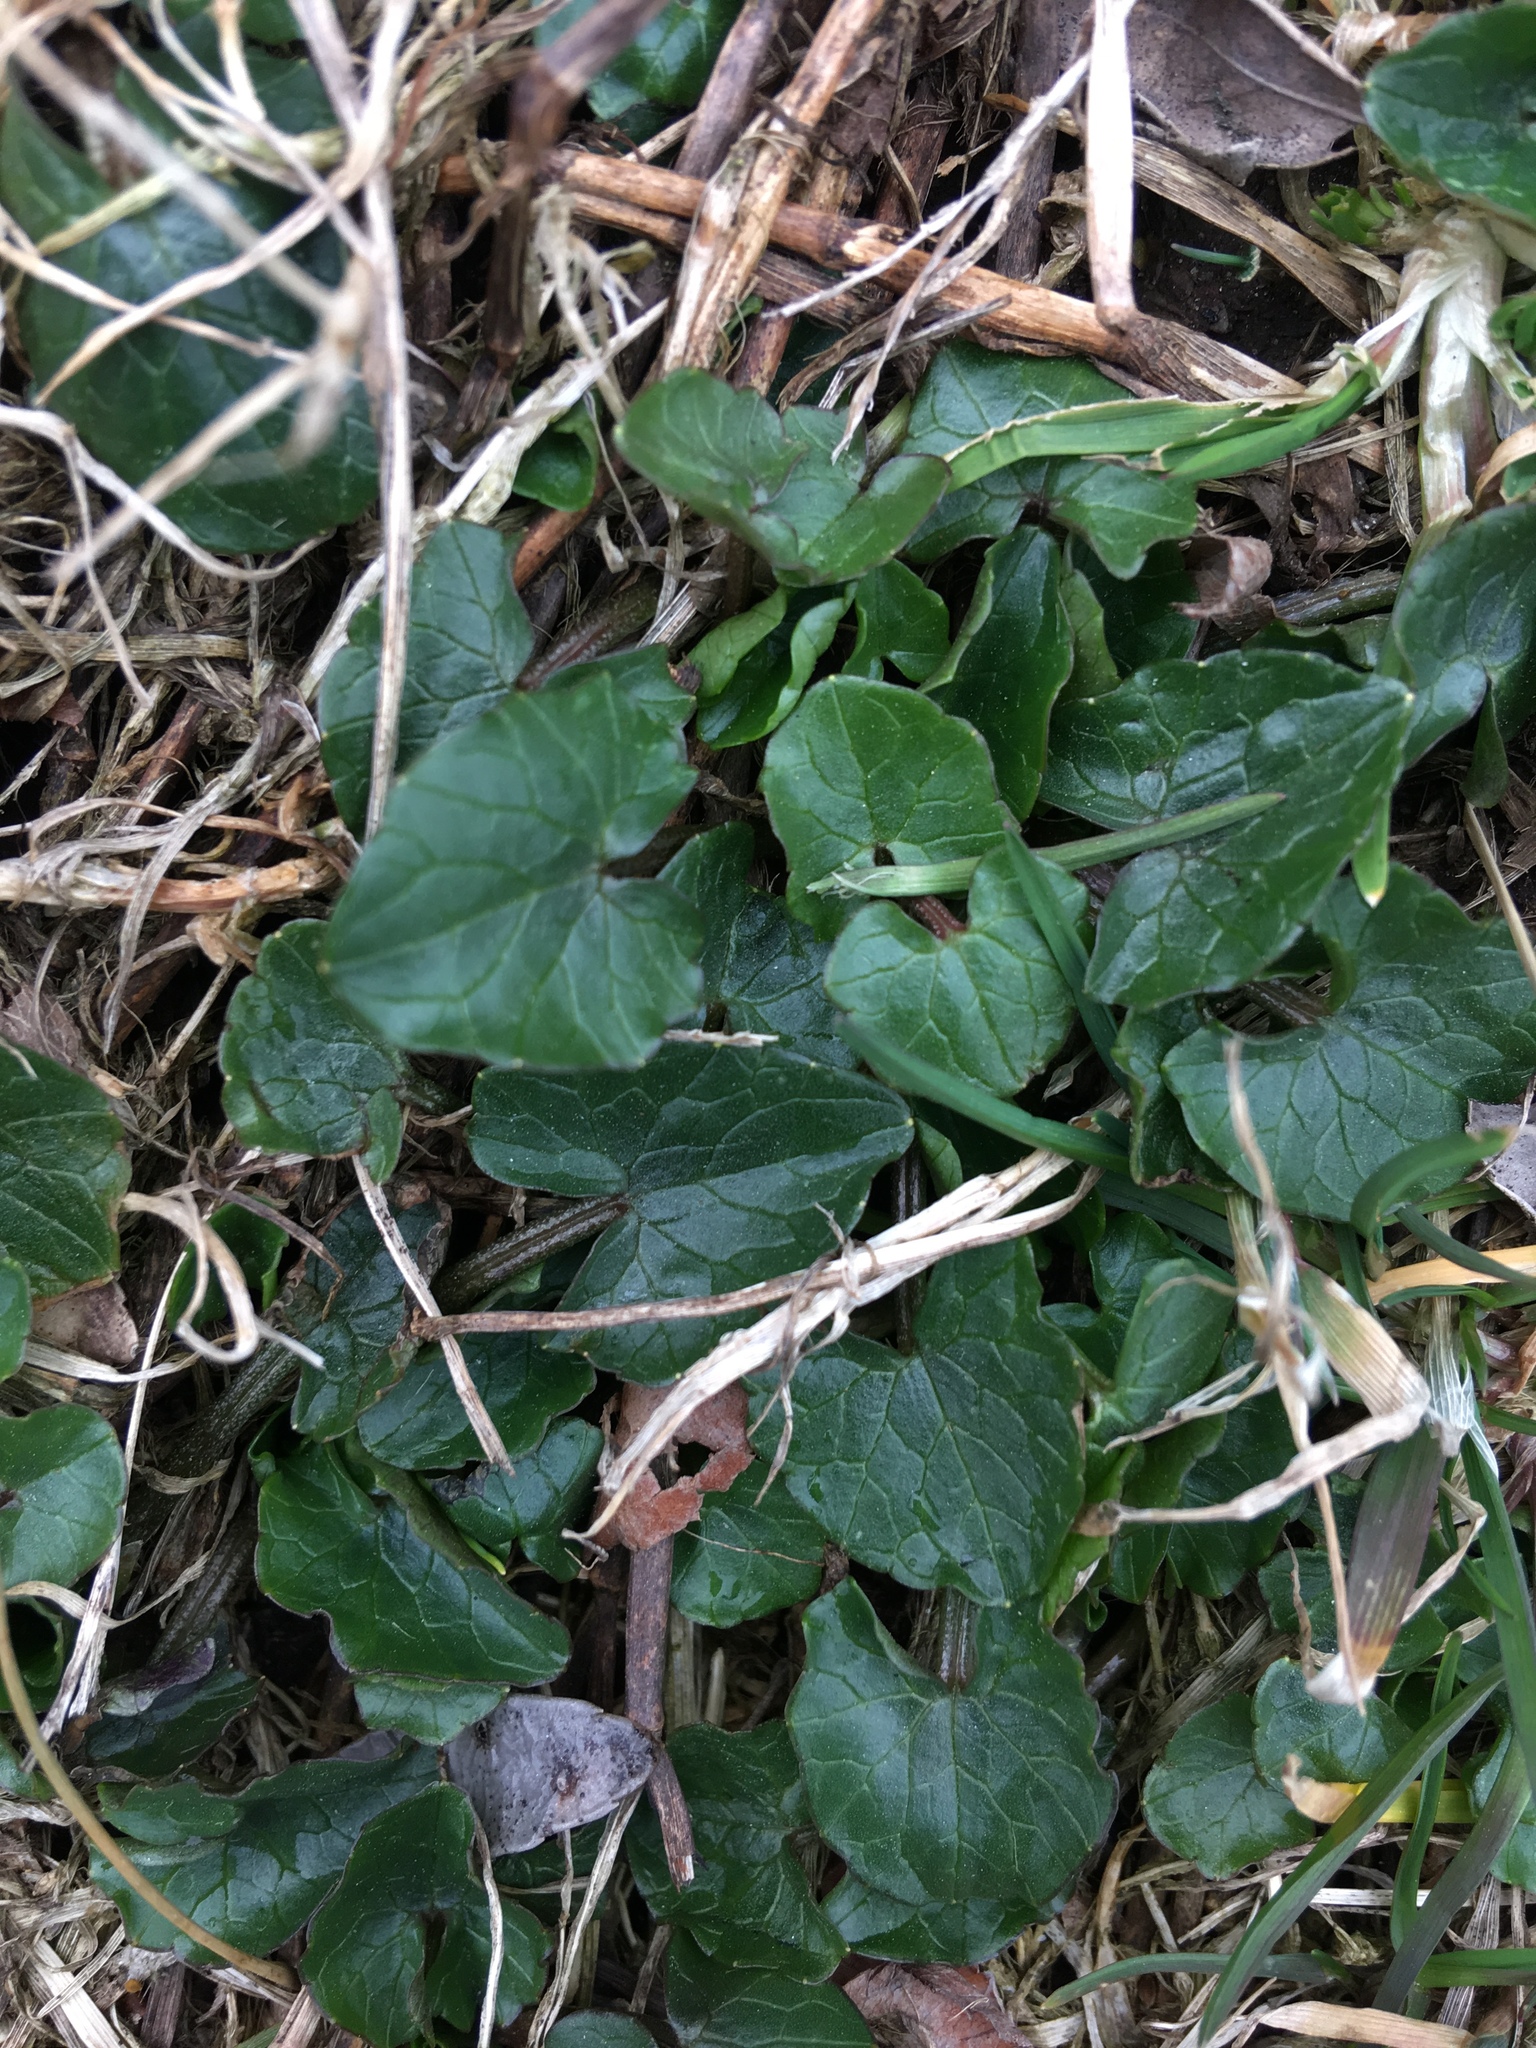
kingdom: Plantae
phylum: Tracheophyta
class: Magnoliopsida
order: Ranunculales
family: Ranunculaceae
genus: Ficaria
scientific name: Ficaria verna
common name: Lesser celandine
